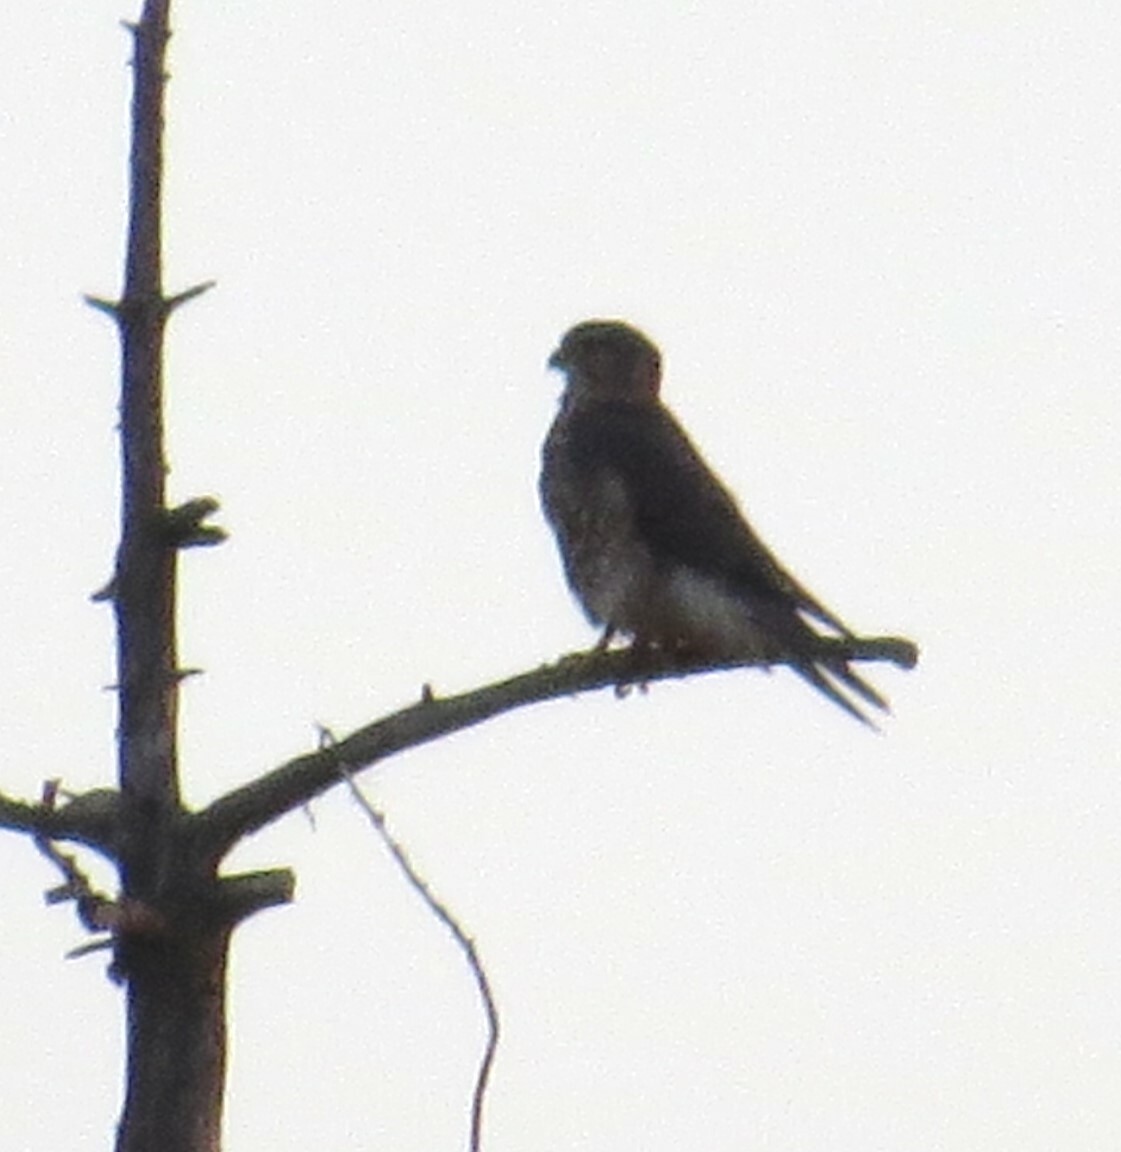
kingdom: Animalia
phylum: Chordata
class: Aves
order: Falconiformes
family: Falconidae
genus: Falco
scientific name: Falco columbarius
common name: Merlin
